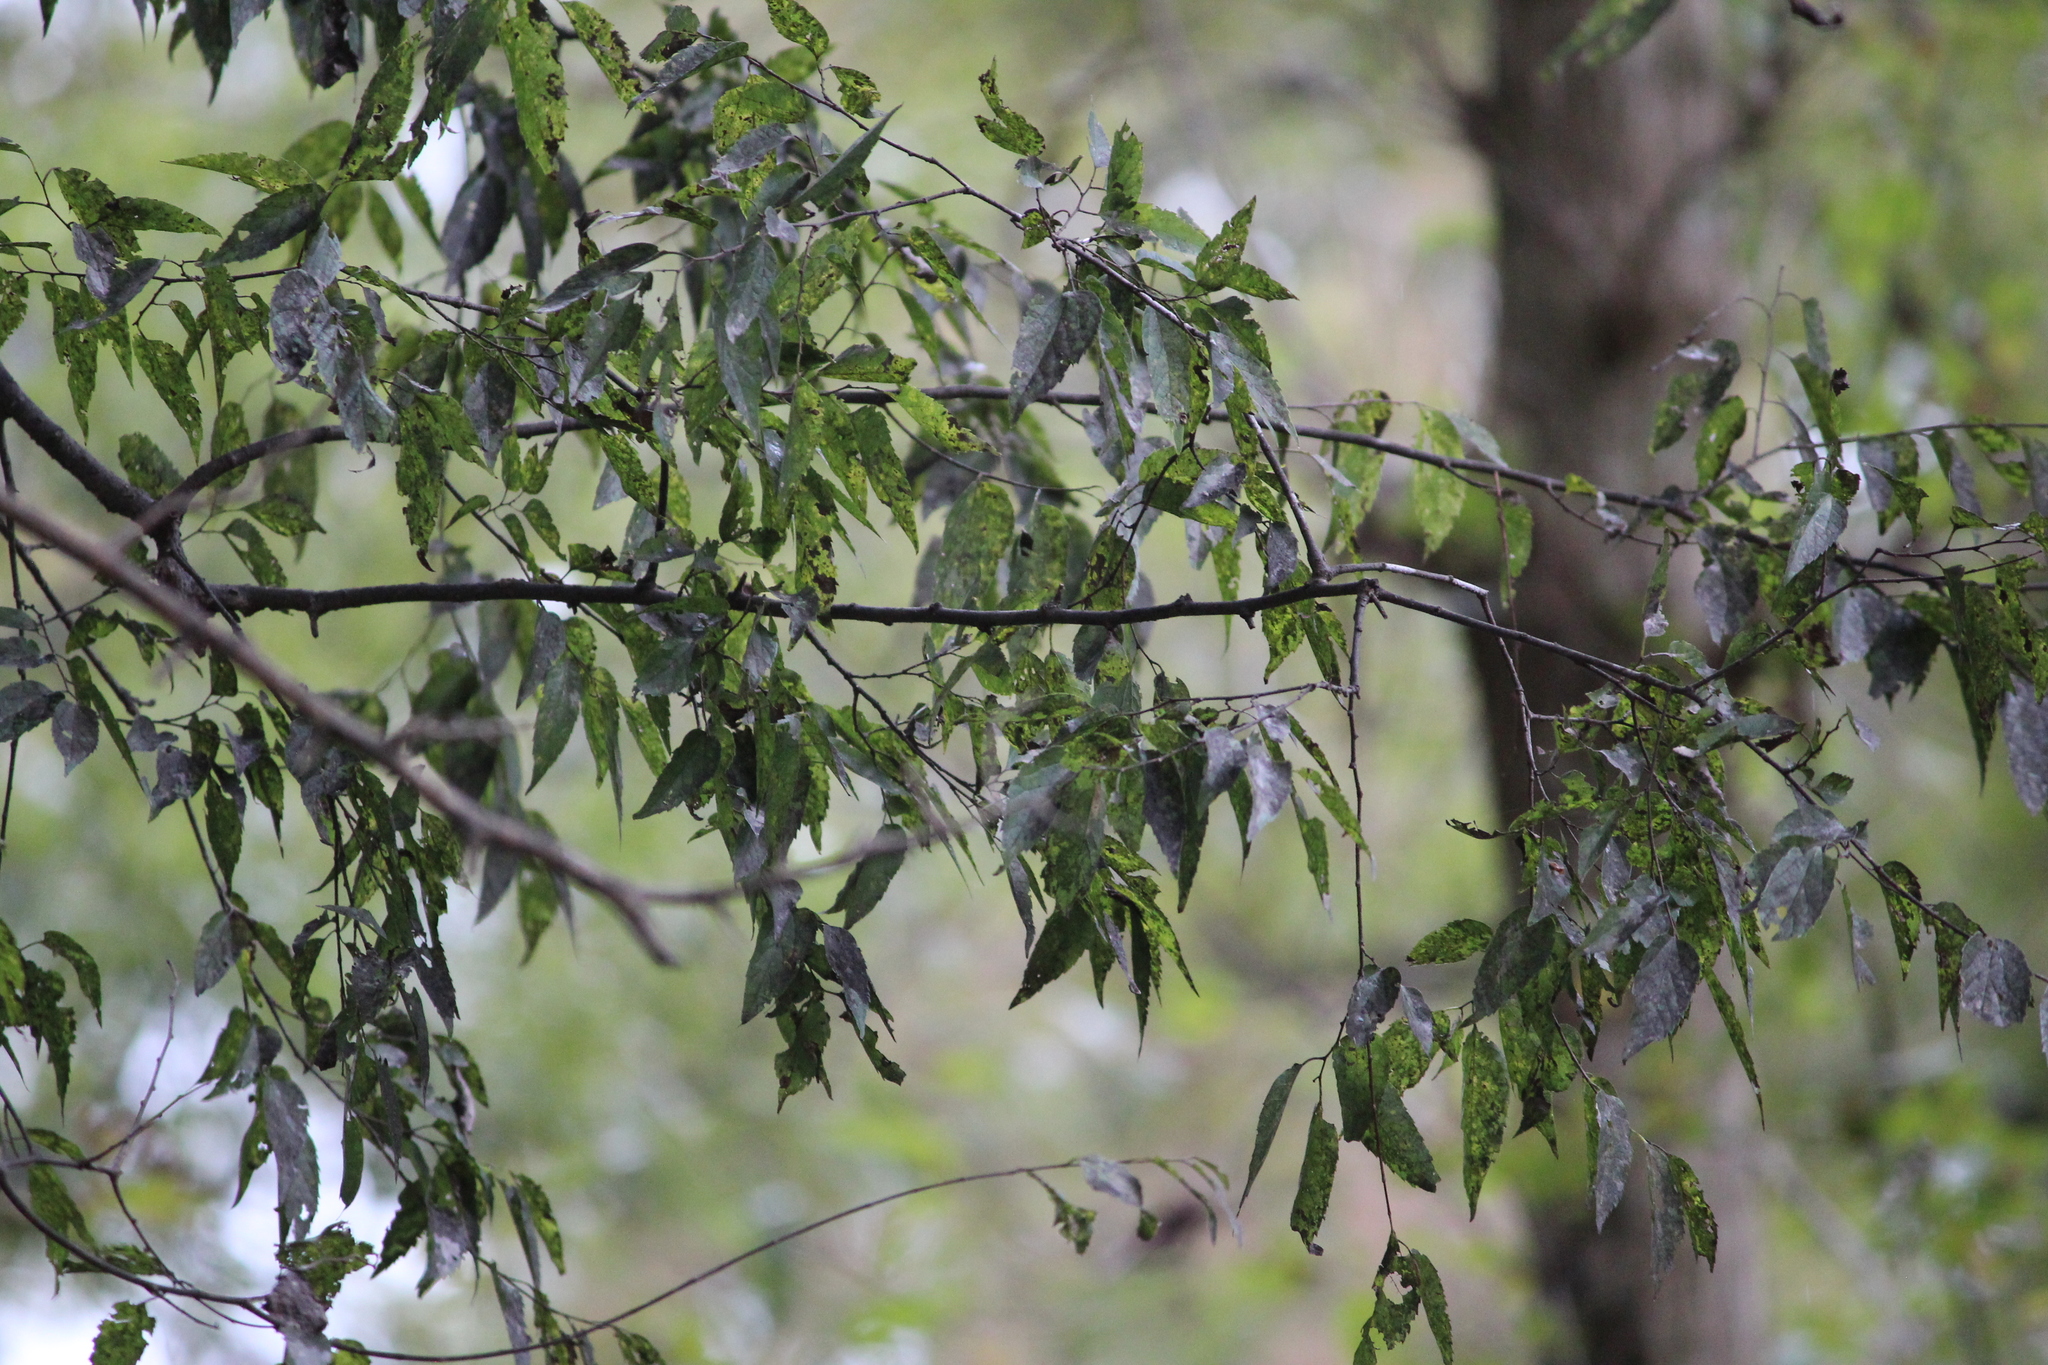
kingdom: Plantae
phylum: Tracheophyta
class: Magnoliopsida
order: Rosales
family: Cannabaceae
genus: Celtis
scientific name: Celtis laevigata
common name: Sugarberry
